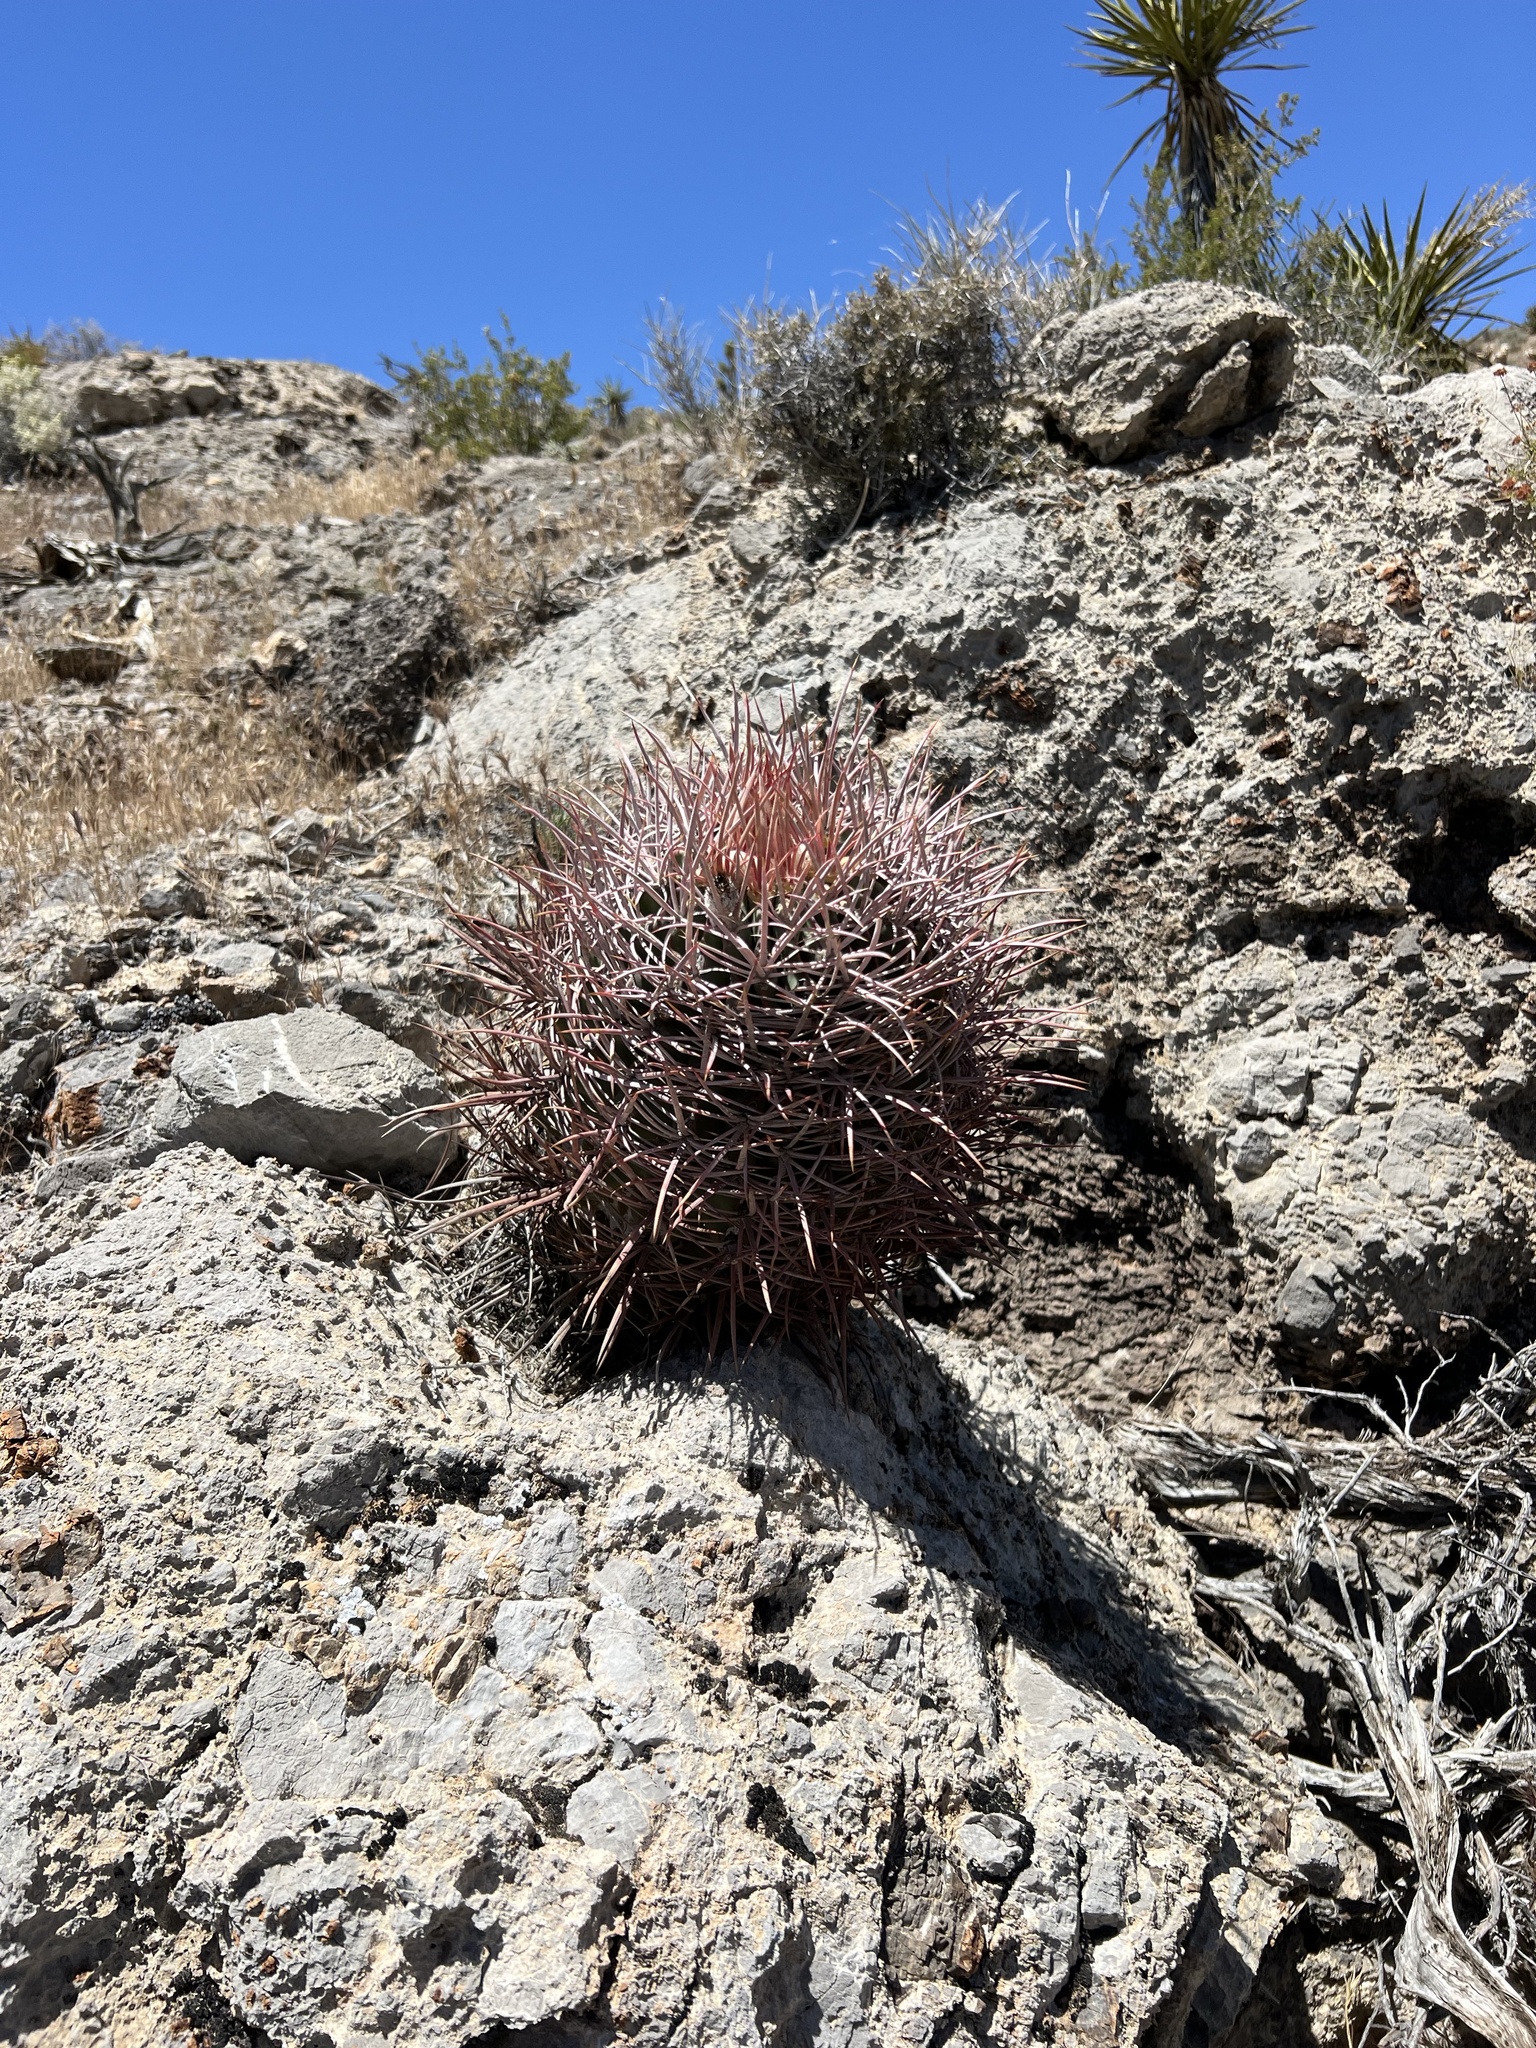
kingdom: Plantae
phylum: Tracheophyta
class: Magnoliopsida
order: Caryophyllales
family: Cactaceae
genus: Echinocactus
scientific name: Echinocactus polycephalus
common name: Cottontop cactus
